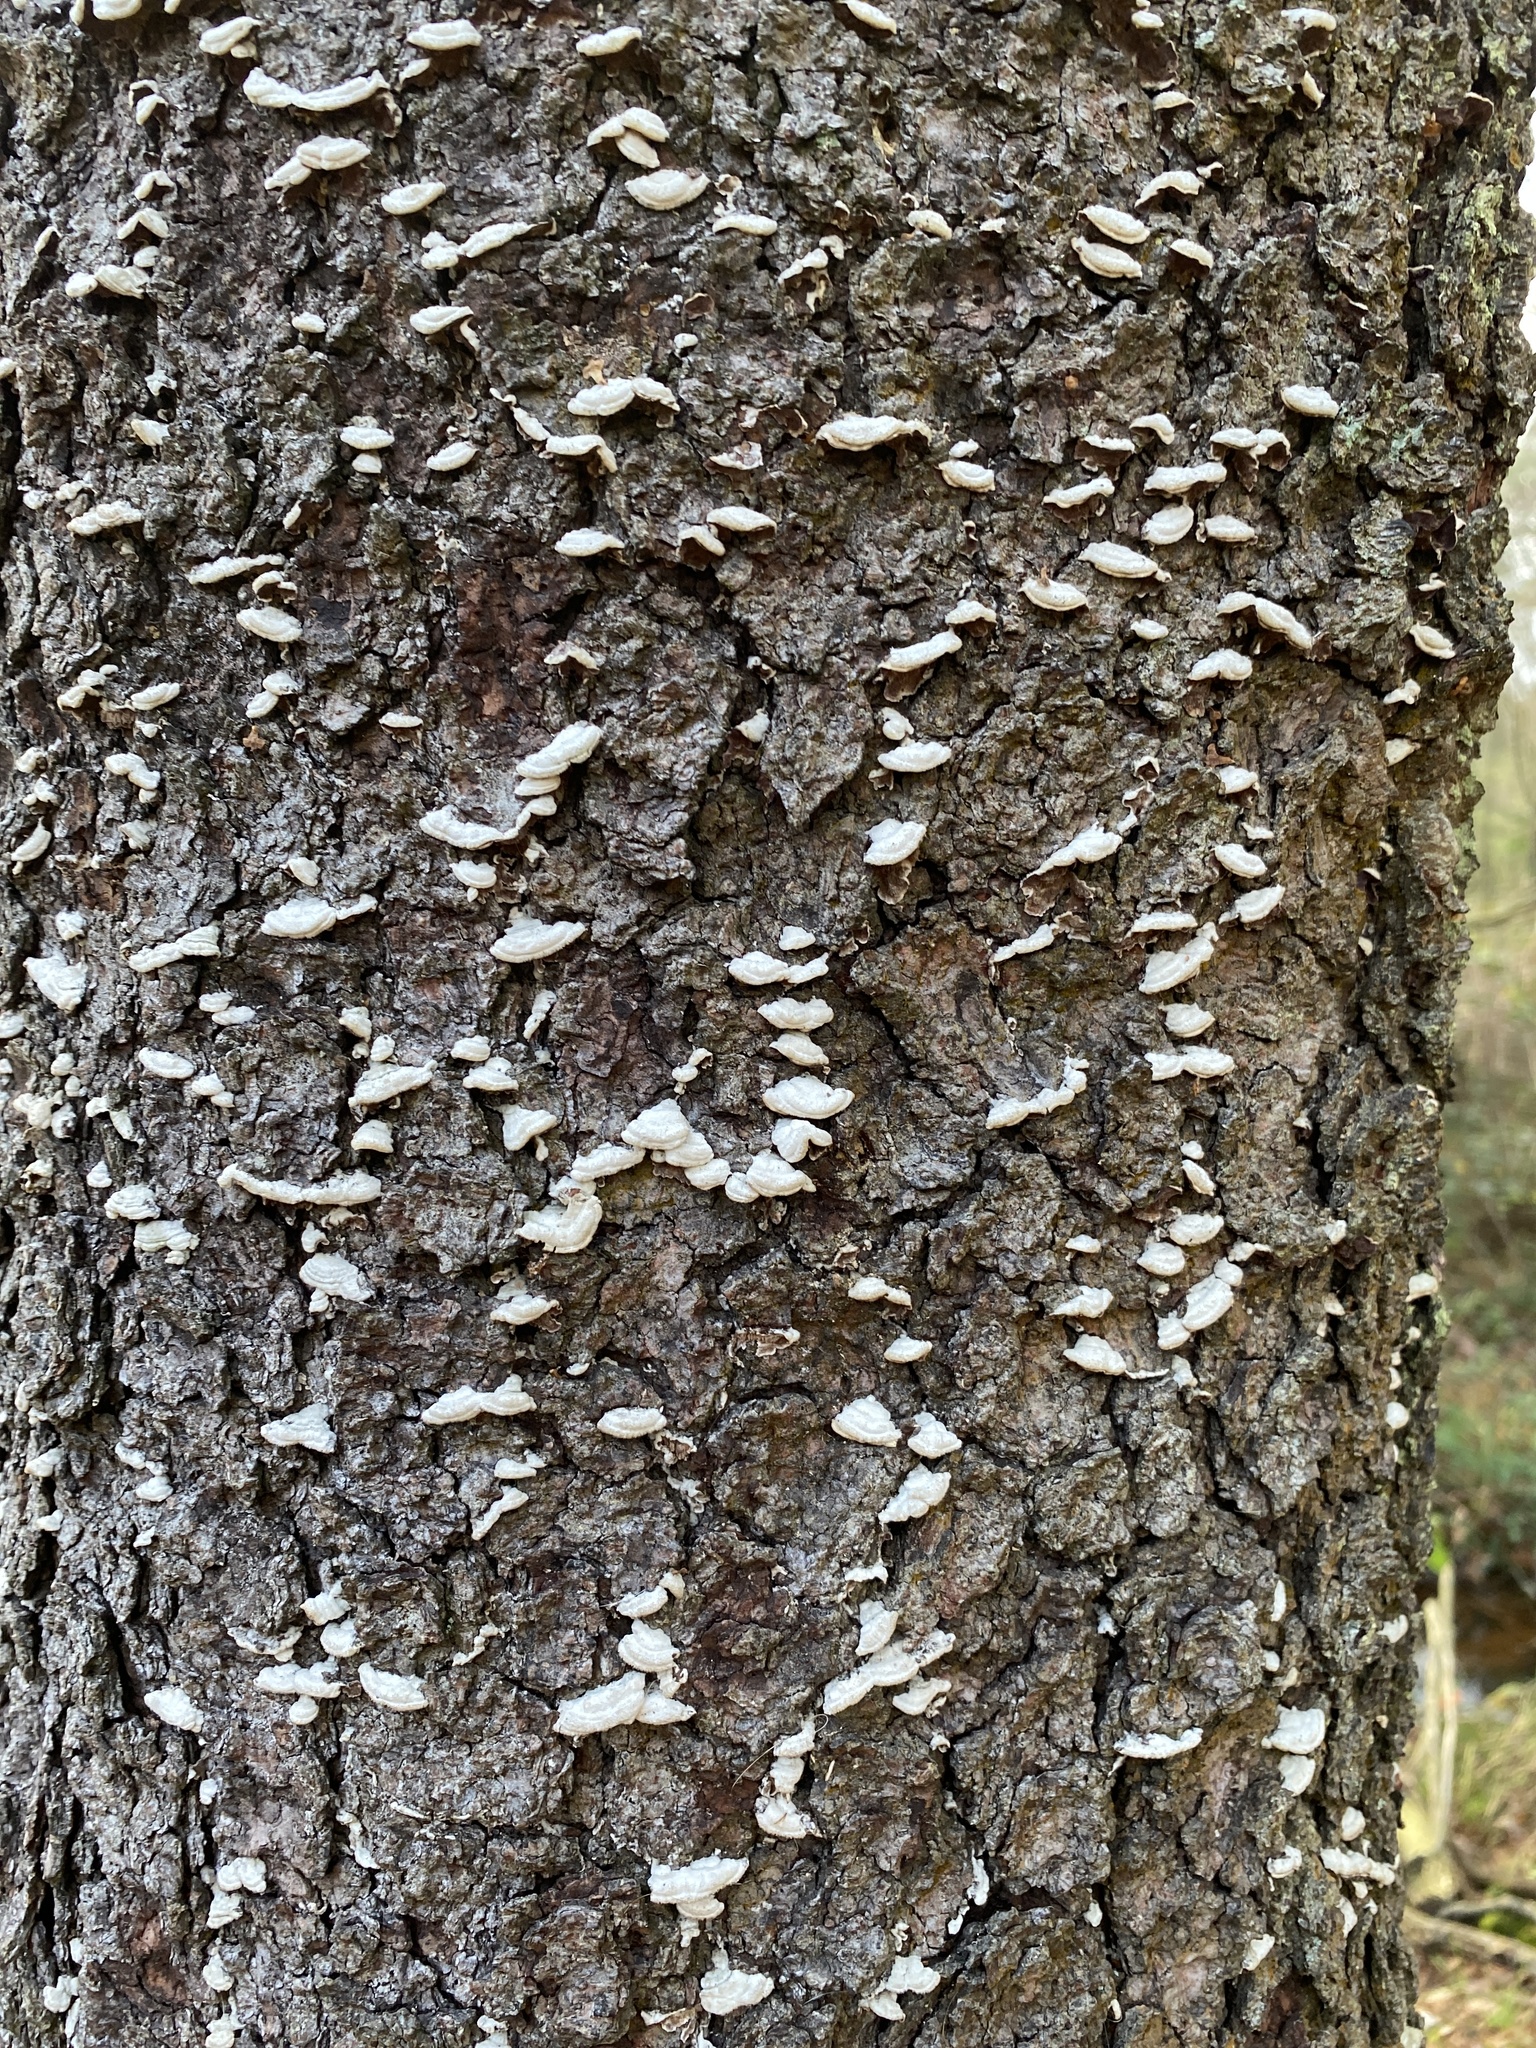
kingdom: Fungi
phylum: Basidiomycota
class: Agaricomycetes
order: Hymenochaetales
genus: Trichaptum
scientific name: Trichaptum abietinum
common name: Purplepore bracket
